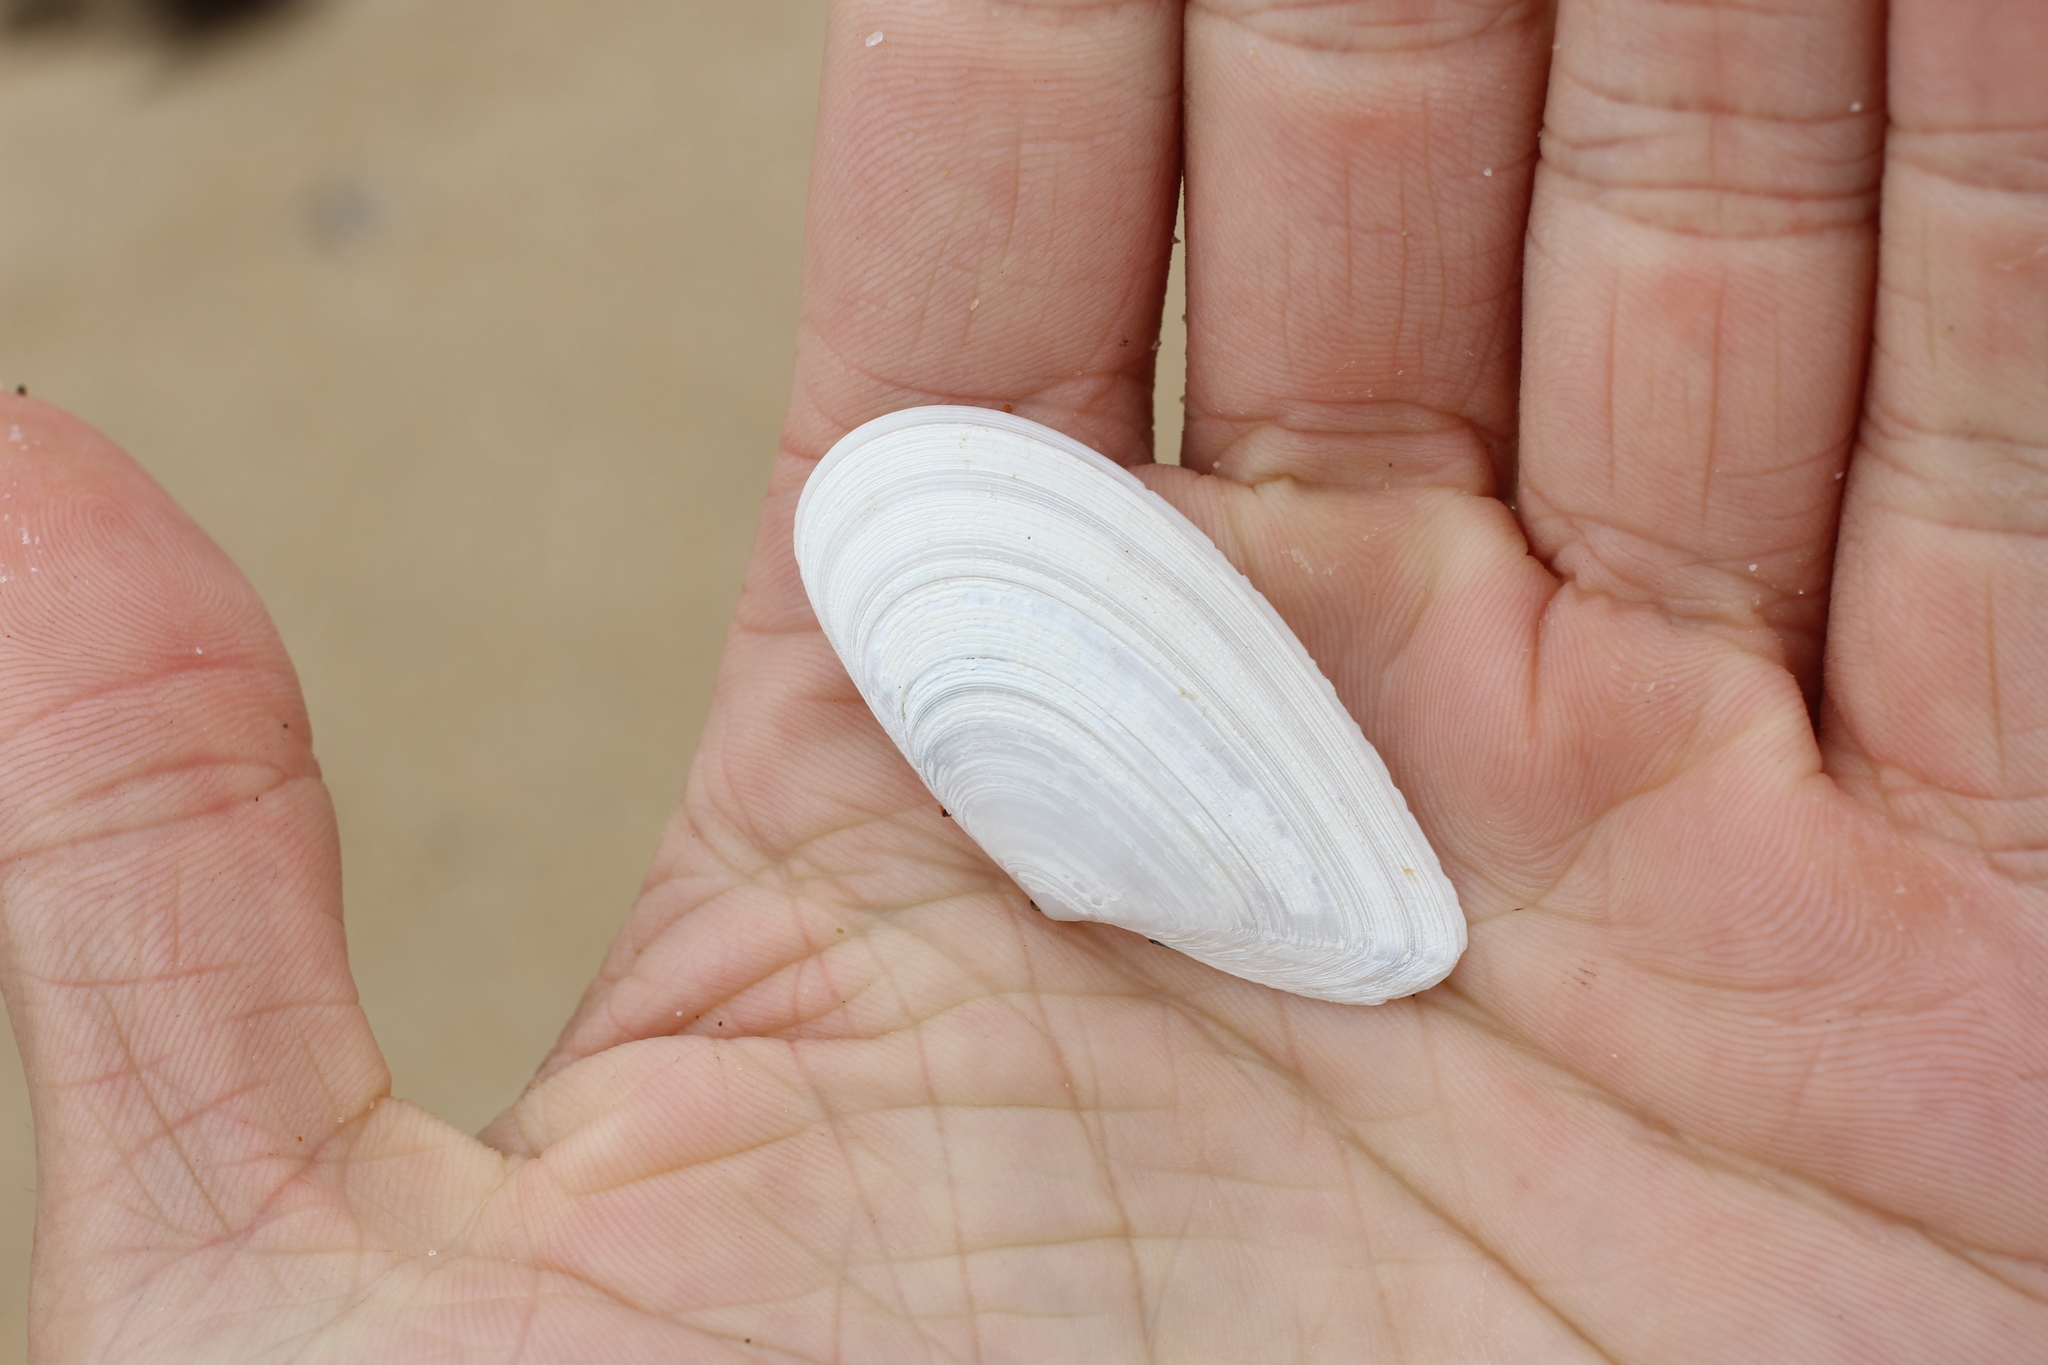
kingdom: Animalia
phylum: Mollusca
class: Bivalvia
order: Cardiida
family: Tellinidae
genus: Megangulus
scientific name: Megangulus bodegensis
